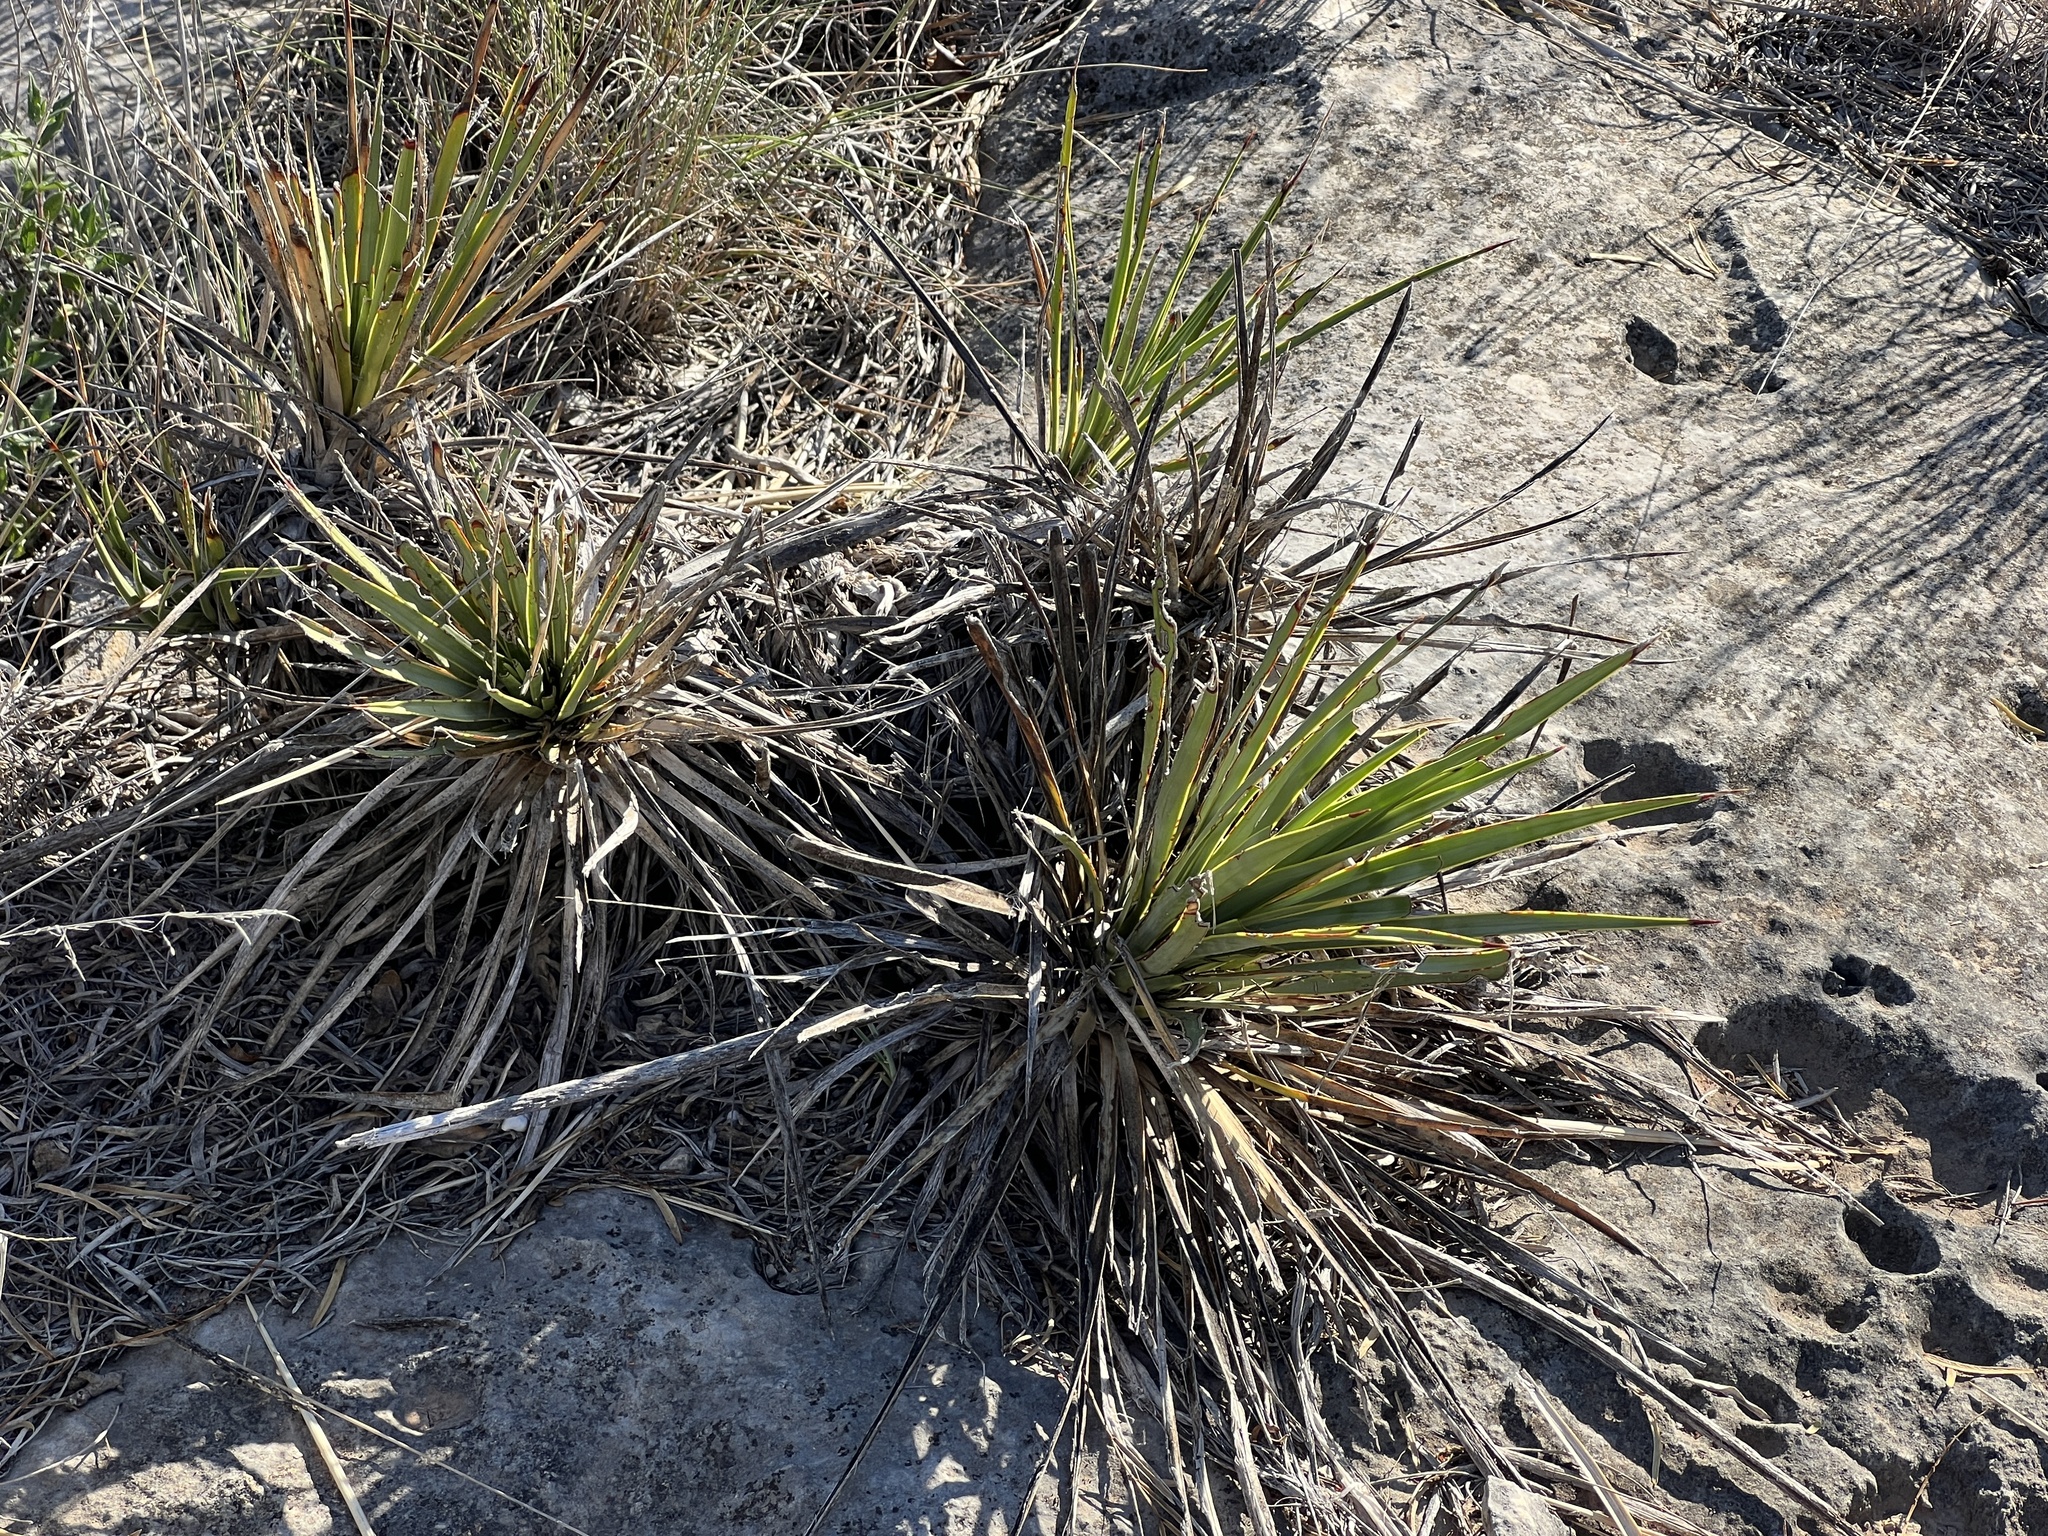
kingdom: Plantae
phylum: Tracheophyta
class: Liliopsida
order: Asparagales
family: Asparagaceae
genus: Yucca
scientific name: Yucca reverchonii
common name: San angelo yucca
